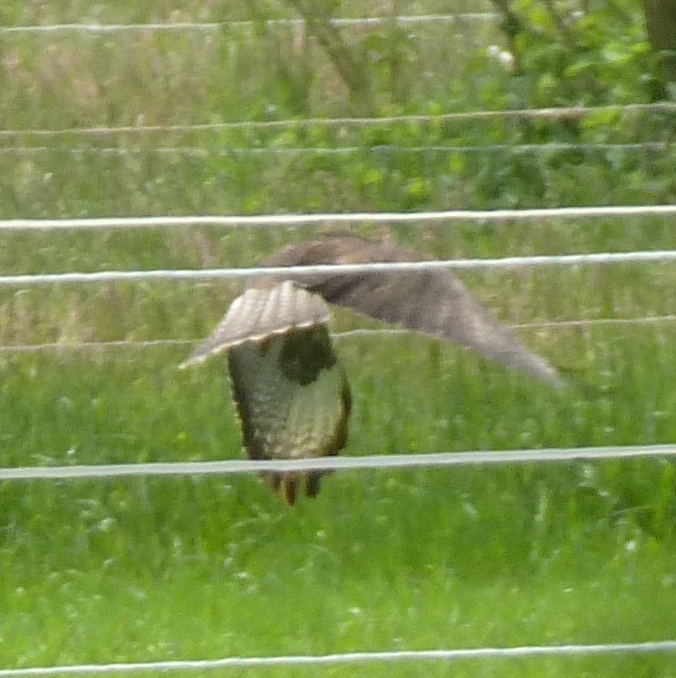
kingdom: Animalia
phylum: Chordata
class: Aves
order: Accipitriformes
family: Accipitridae
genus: Buteo
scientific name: Buteo buteo
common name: Common buzzard
